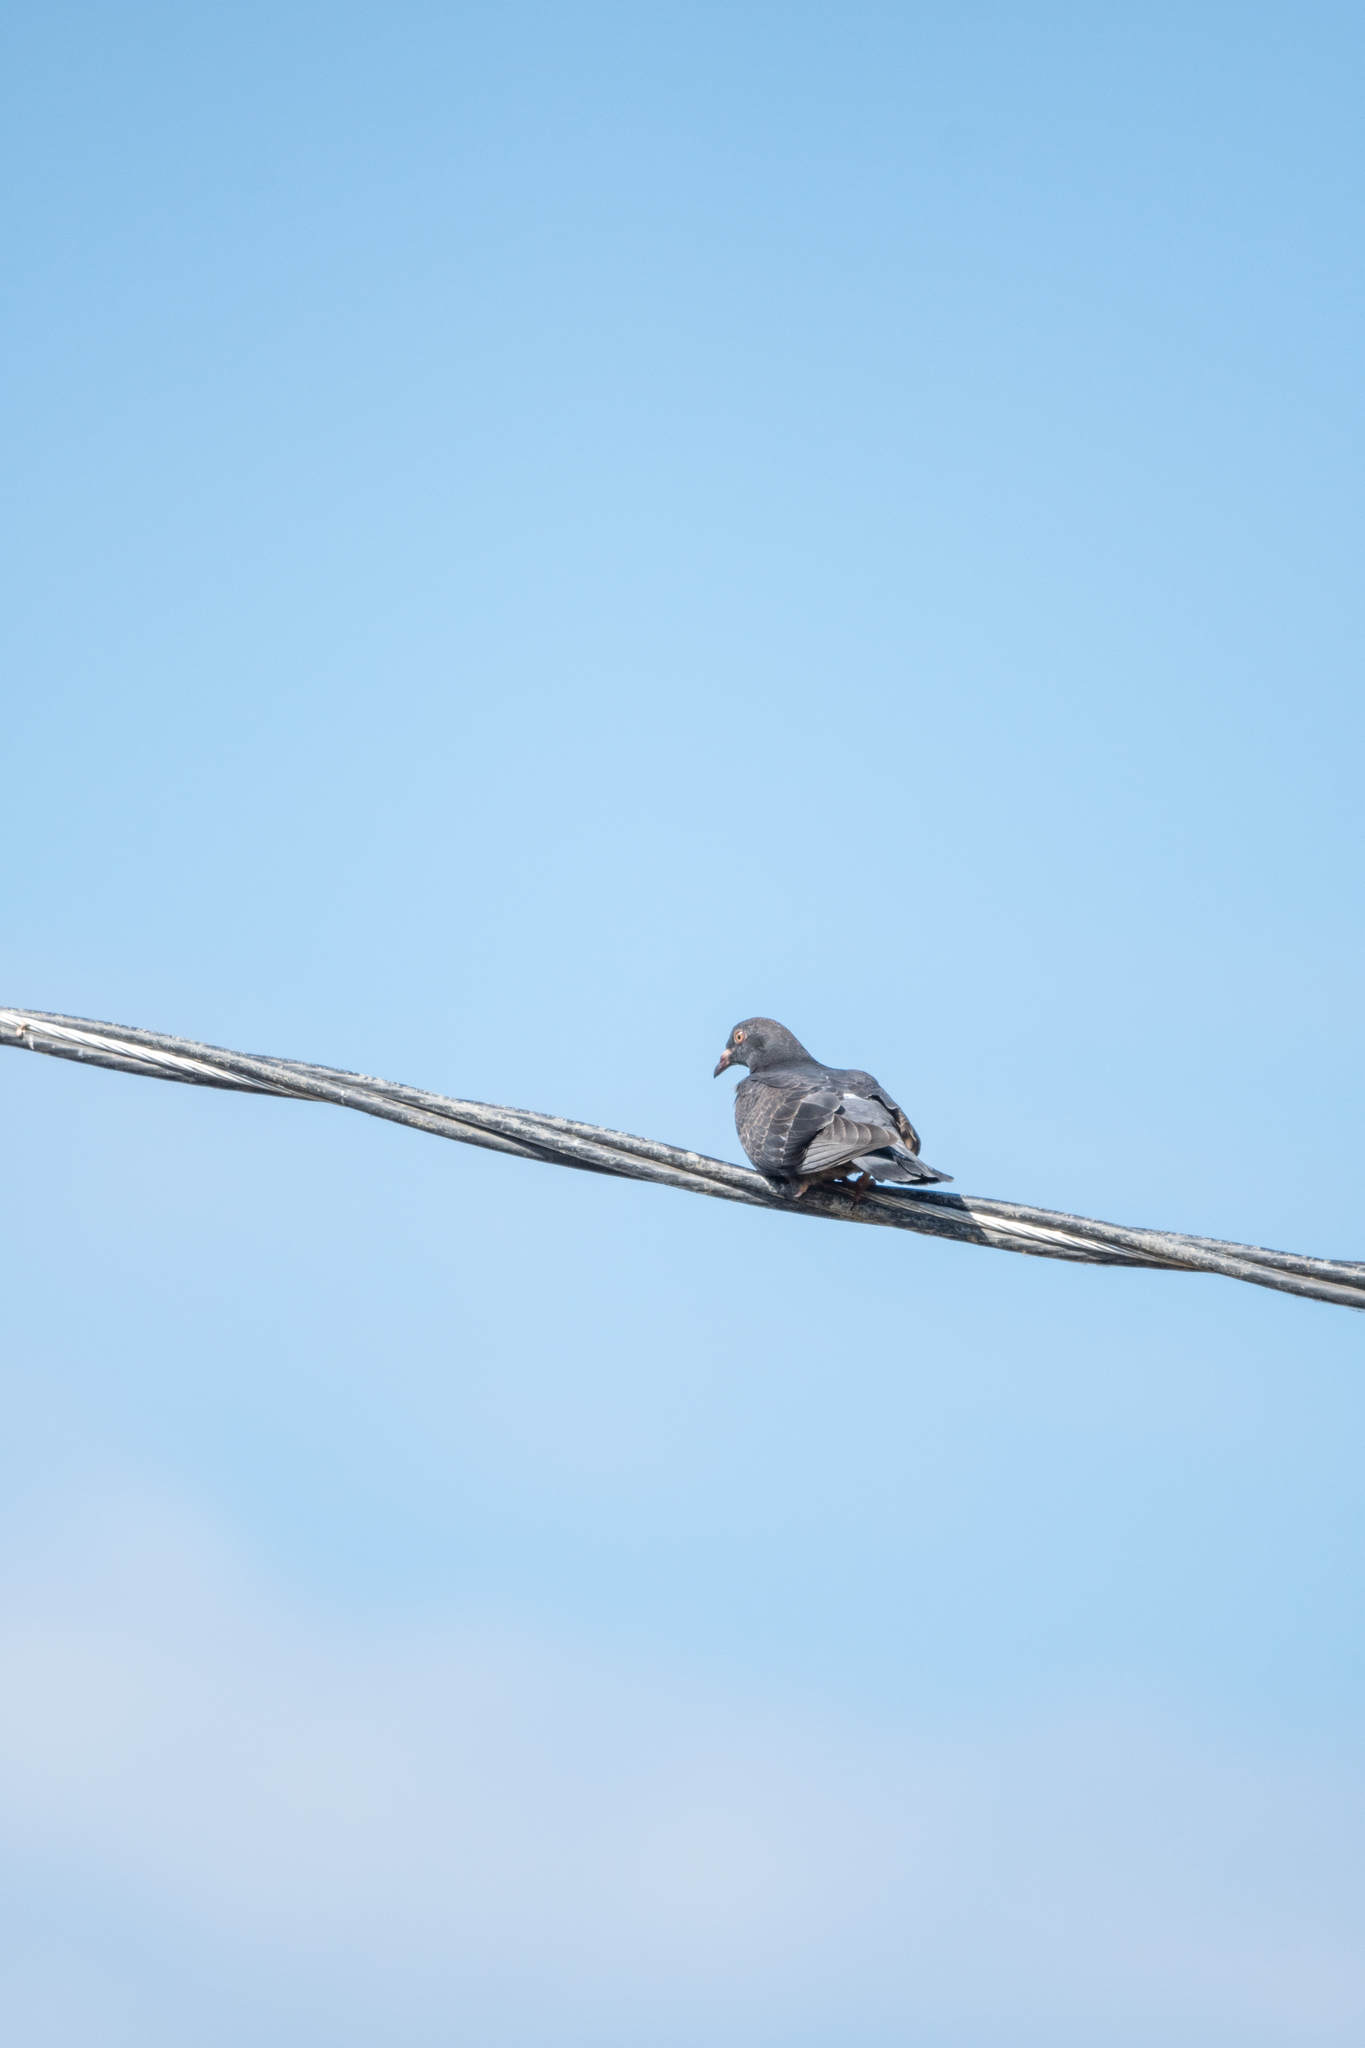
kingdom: Animalia
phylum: Chordata
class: Aves
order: Columbiformes
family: Columbidae
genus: Columba
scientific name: Columba livia
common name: Rock pigeon
